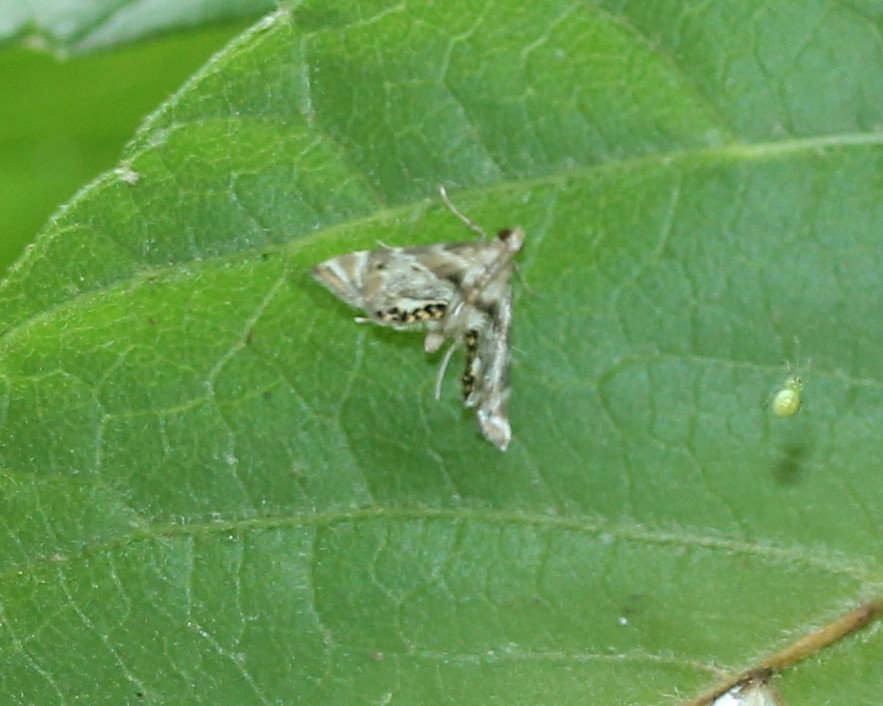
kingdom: Animalia
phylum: Arthropoda
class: Insecta
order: Lepidoptera
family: Crambidae
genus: Petrophila
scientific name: Petrophila fulicalis
